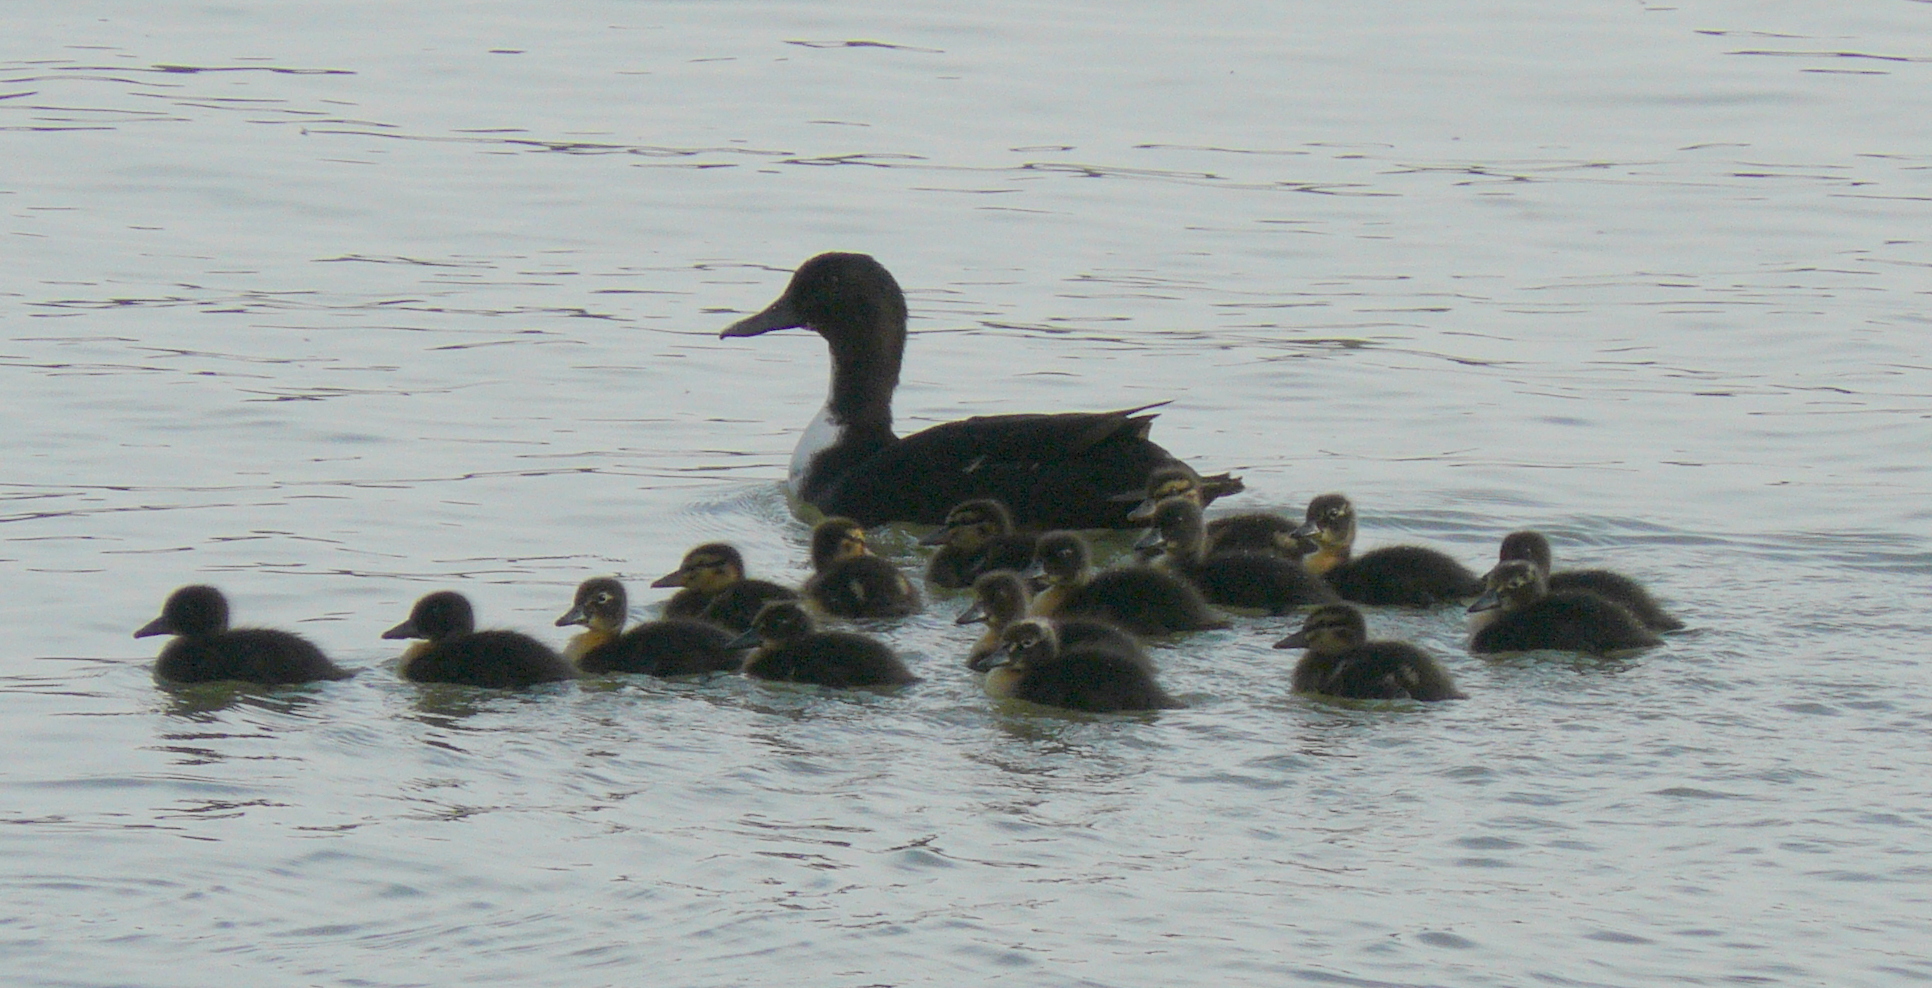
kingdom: Animalia
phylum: Chordata
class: Aves
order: Anseriformes
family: Anatidae
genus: Anas
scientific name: Anas platyrhynchos
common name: Mallard
